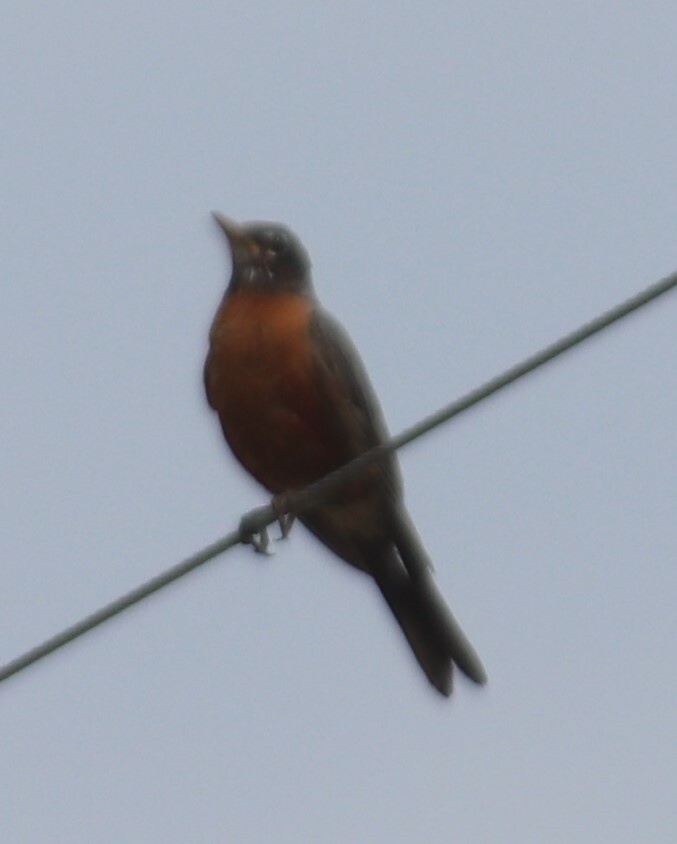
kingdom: Animalia
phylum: Chordata
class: Aves
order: Passeriformes
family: Turdidae
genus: Turdus
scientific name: Turdus migratorius
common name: American robin
